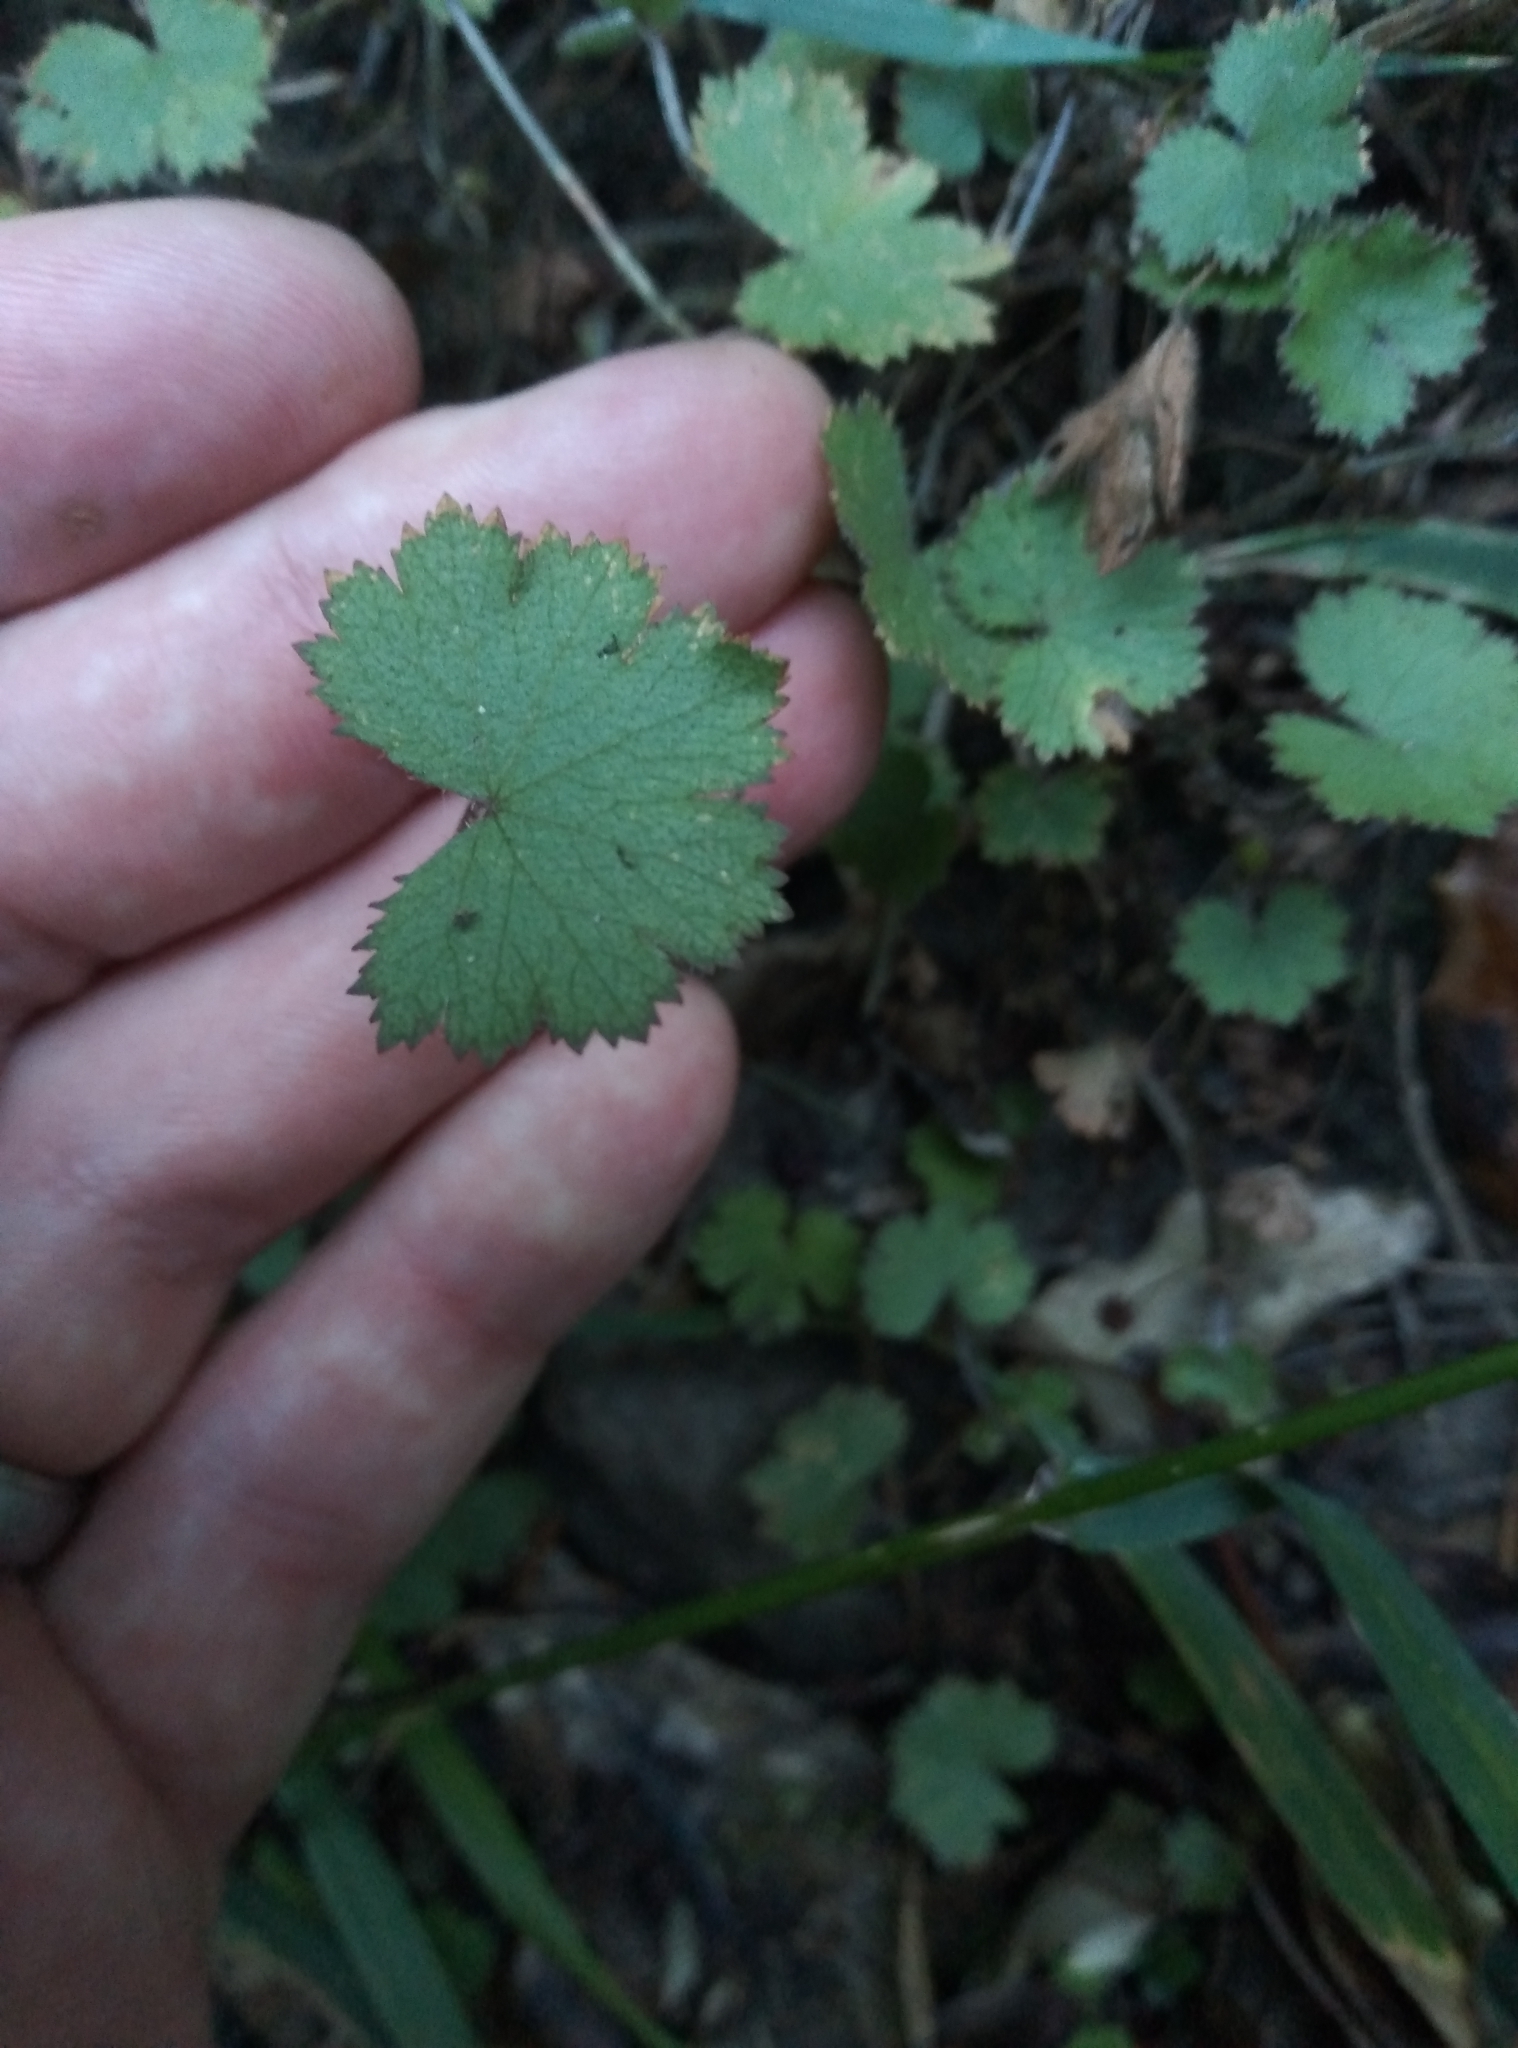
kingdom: Plantae
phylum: Tracheophyta
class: Magnoliopsida
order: Apiales
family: Araliaceae
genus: Hydrocotyle
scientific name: Hydrocotyle moschata
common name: Hairy pennywort
